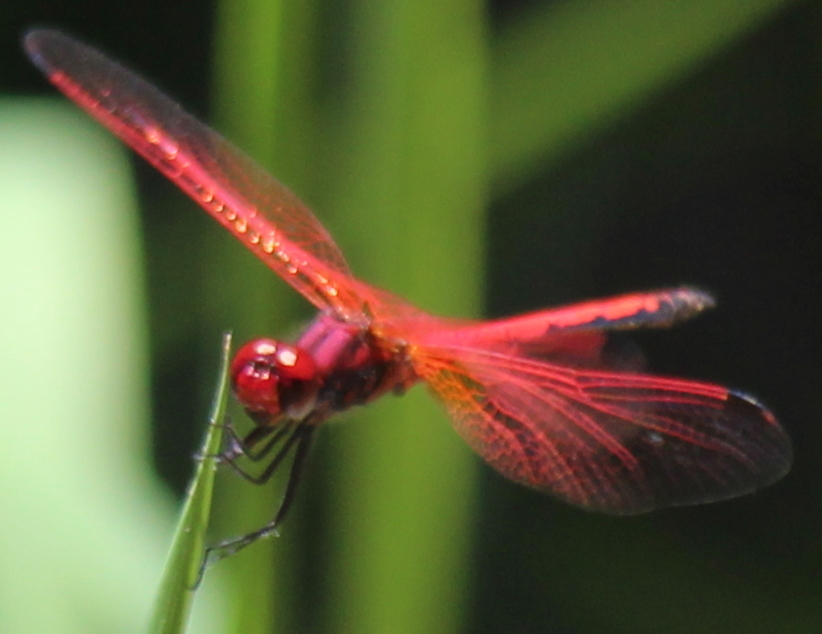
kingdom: Animalia
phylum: Arthropoda
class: Insecta
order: Odonata
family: Libellulidae
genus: Trithemis
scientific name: Trithemis arteriosa
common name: Red-veined dropwing
